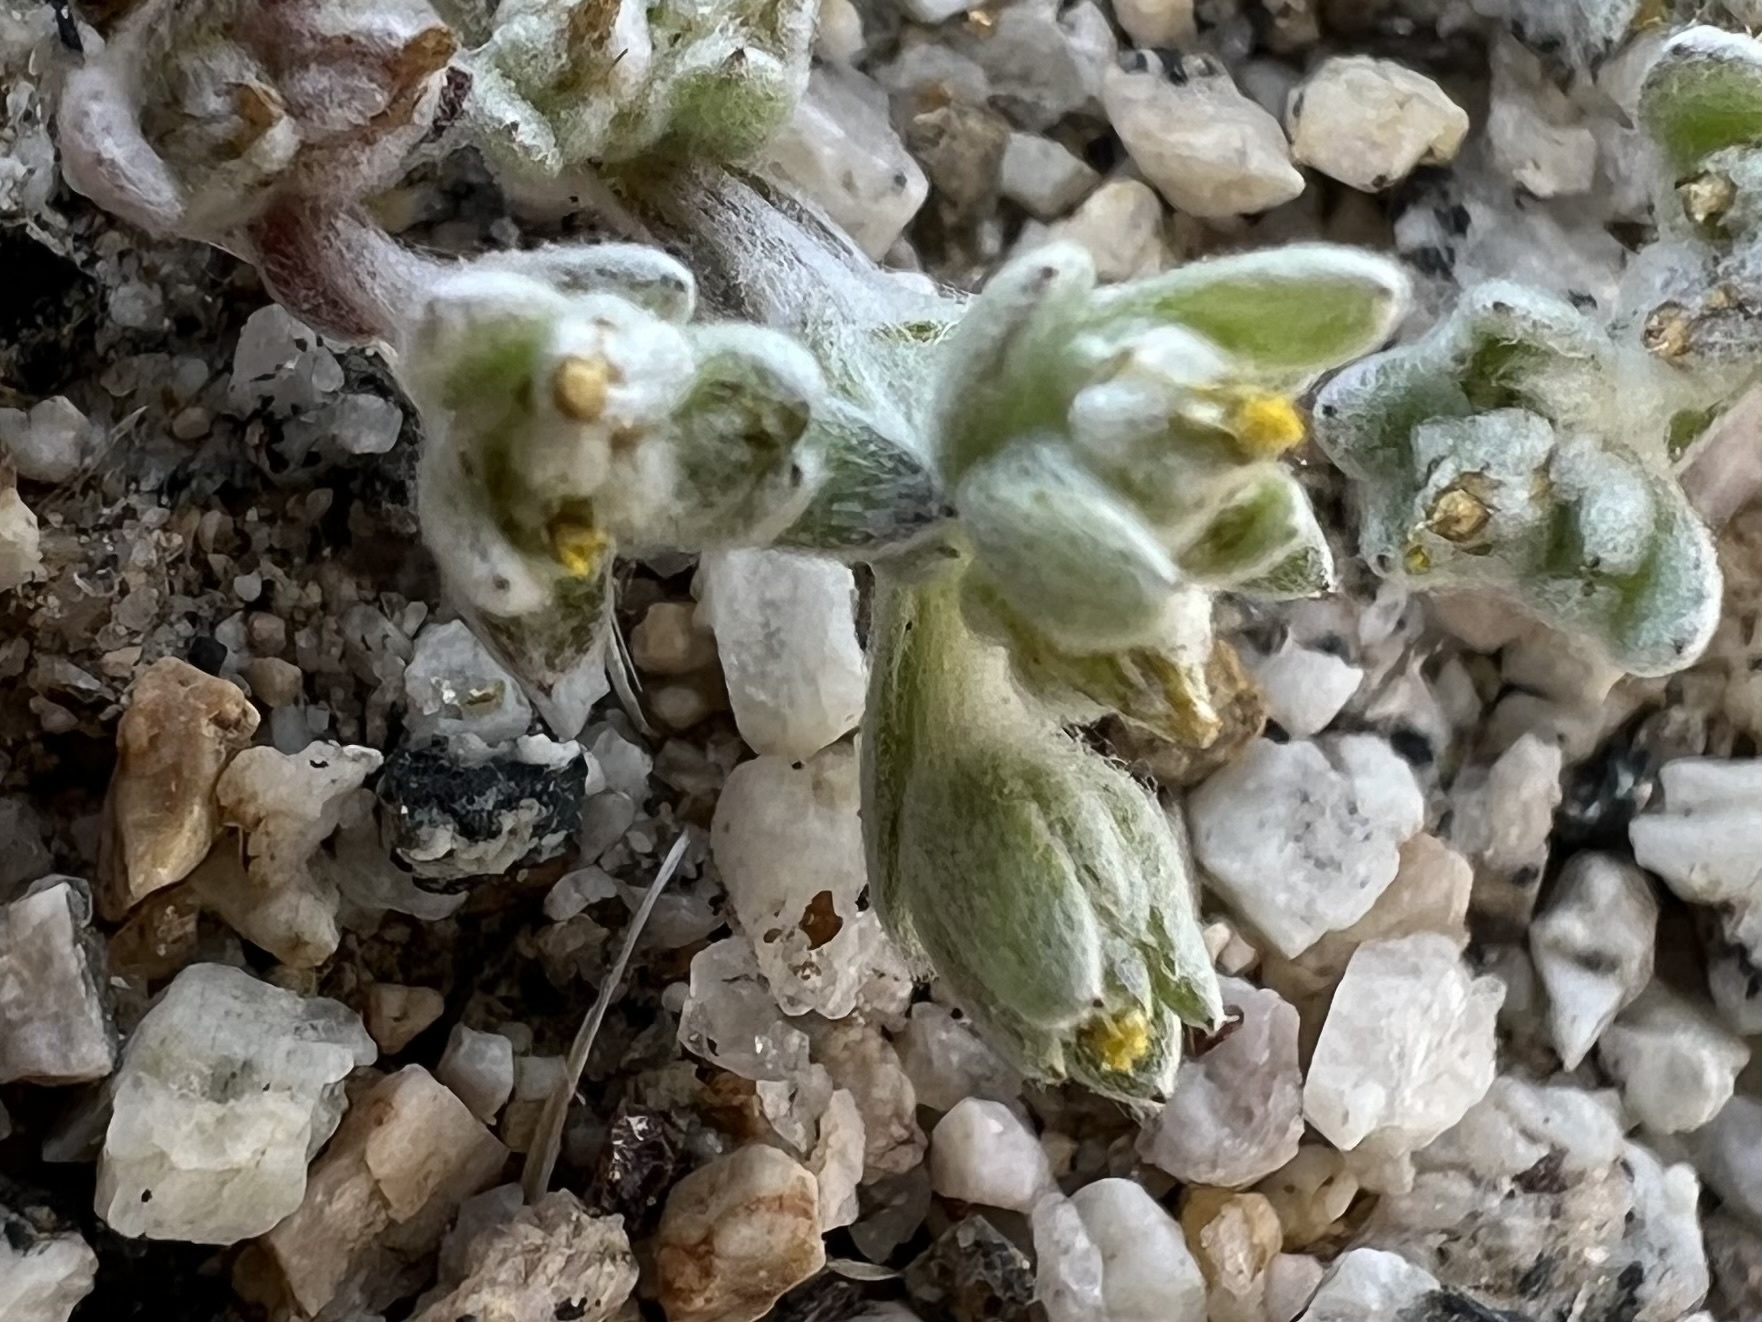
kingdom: Plantae
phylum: Tracheophyta
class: Magnoliopsida
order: Asterales
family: Asteraceae
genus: Logfia
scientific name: Logfia depressa
